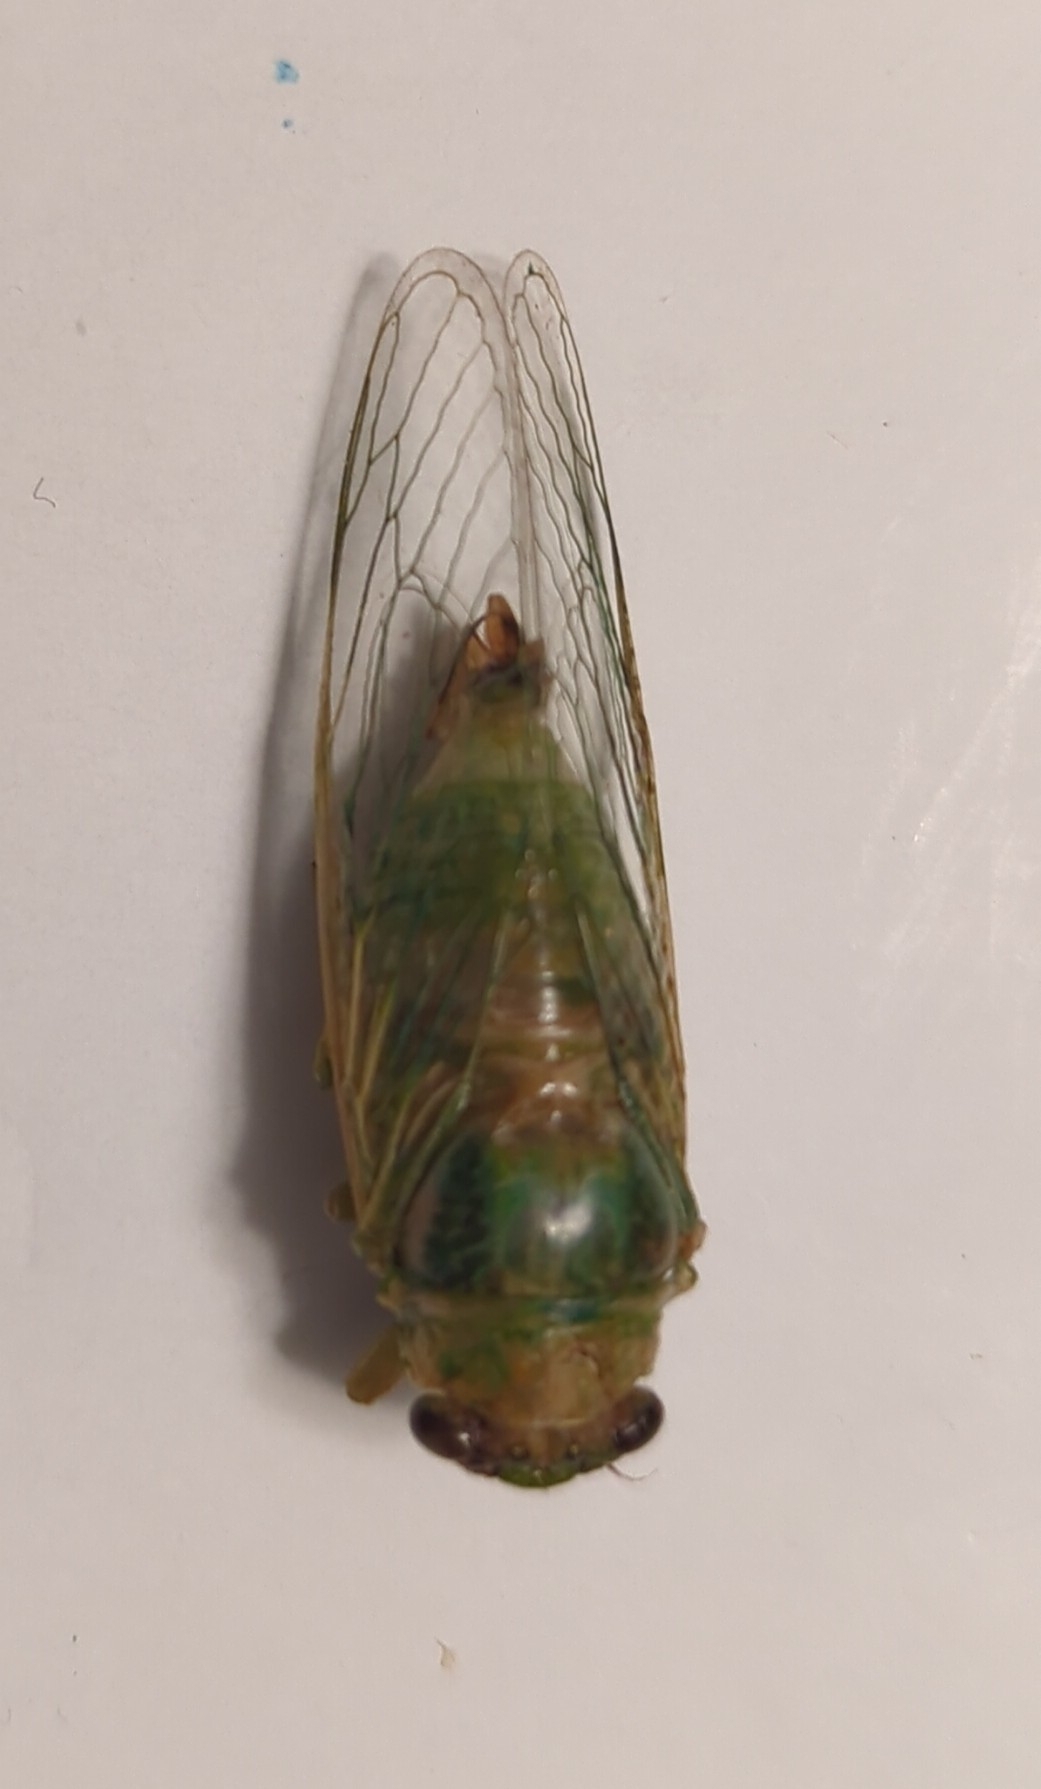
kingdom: Animalia
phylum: Arthropoda
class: Insecta
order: Hemiptera
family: Cicadidae
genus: Glaucopsaltria
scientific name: Glaucopsaltria viridis
